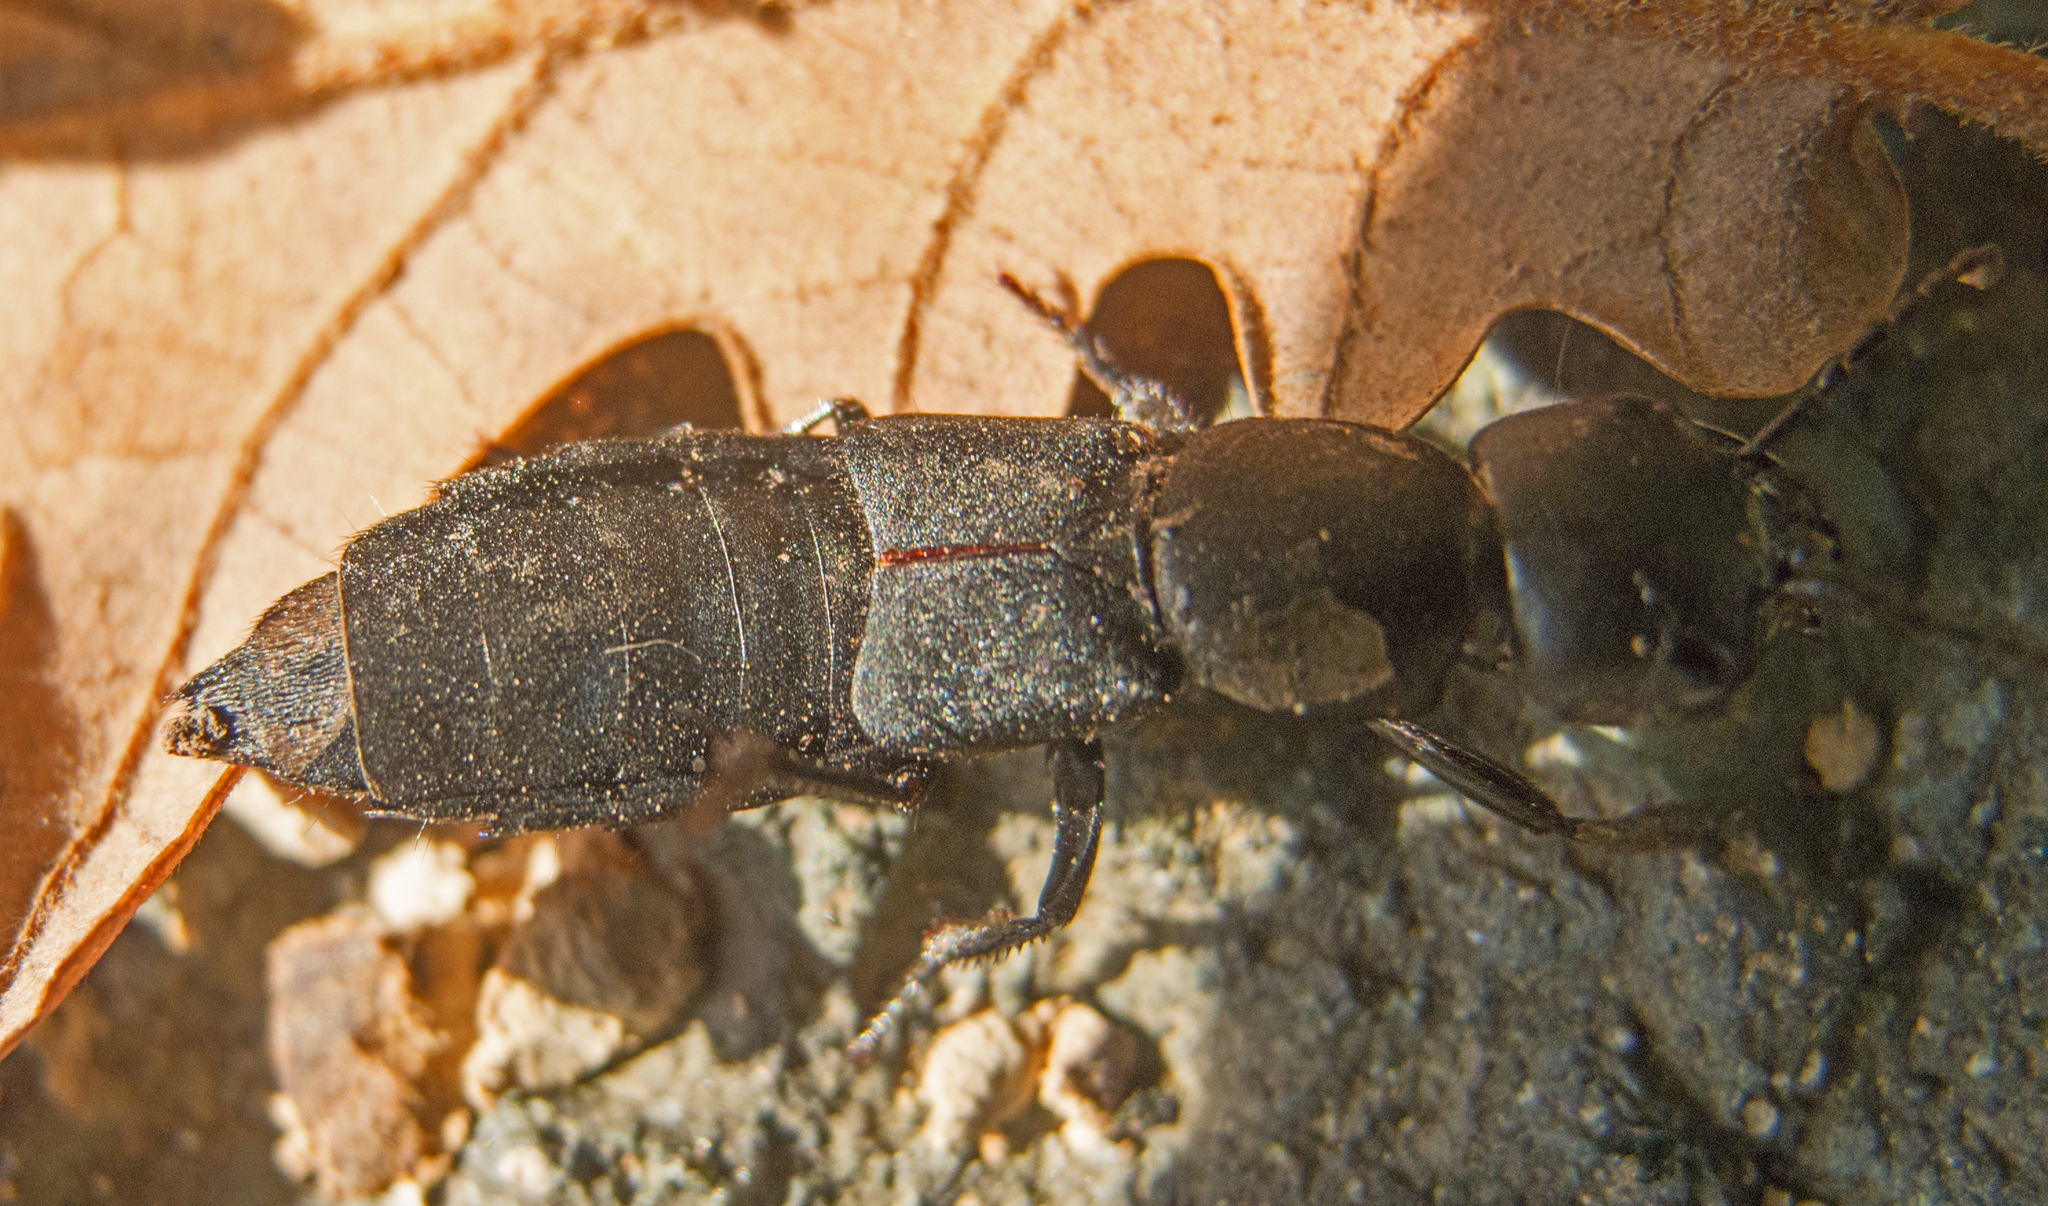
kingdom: Animalia
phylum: Arthropoda
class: Insecta
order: Coleoptera
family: Staphylinidae
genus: Ocypus
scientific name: Ocypus olens
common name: Devil's coach-horse
